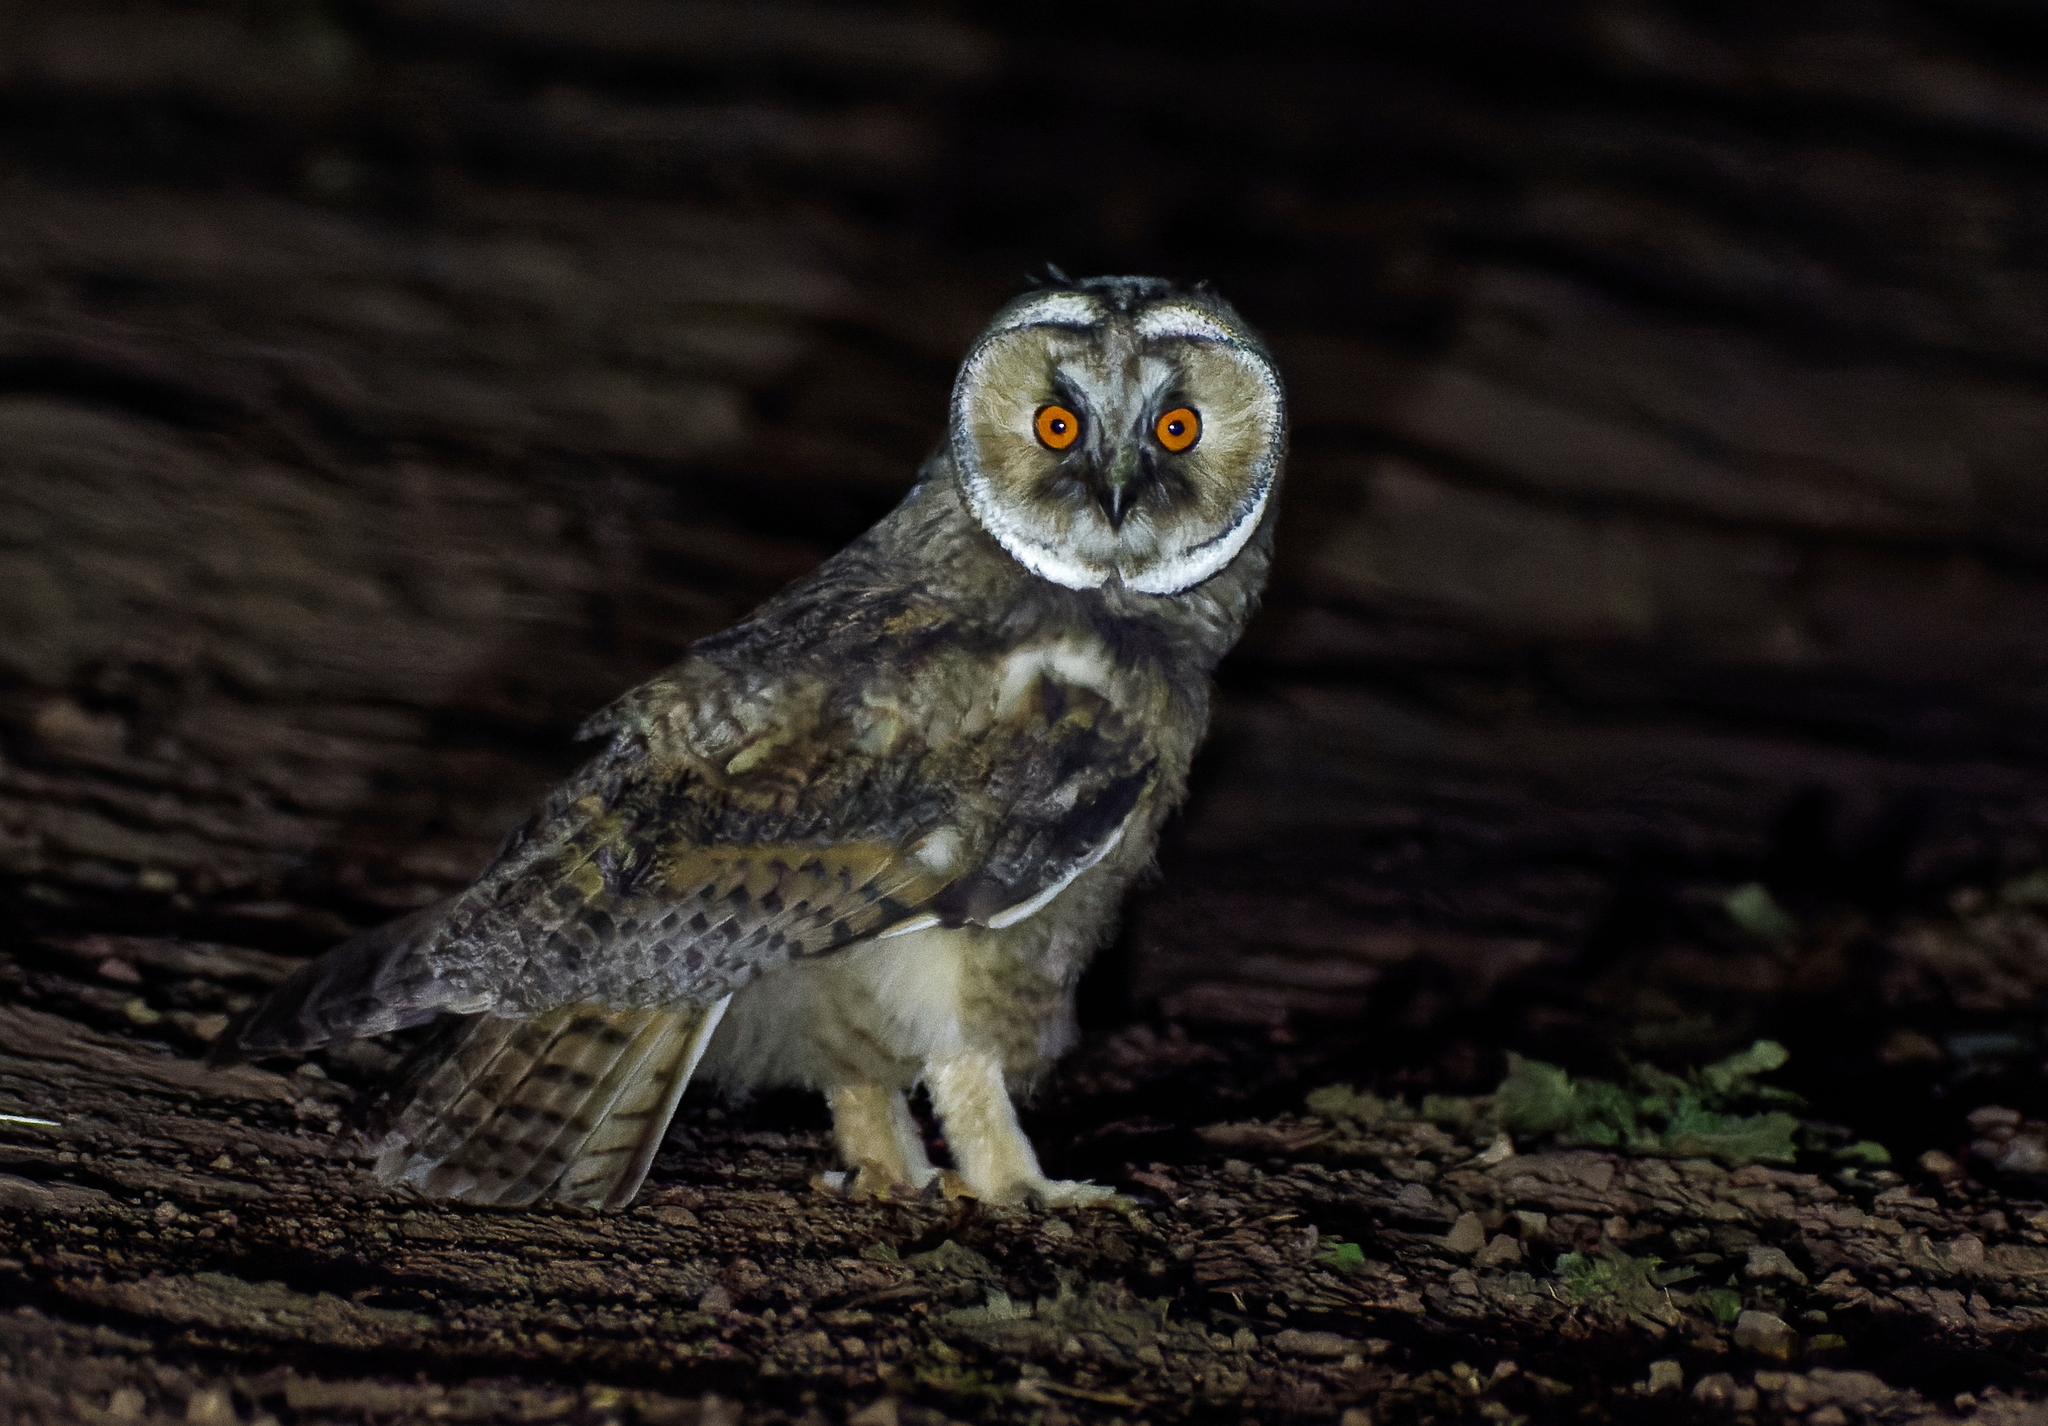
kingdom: Animalia
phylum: Chordata
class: Aves
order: Strigiformes
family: Strigidae
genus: Asio
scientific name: Asio otus
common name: Long-eared owl
